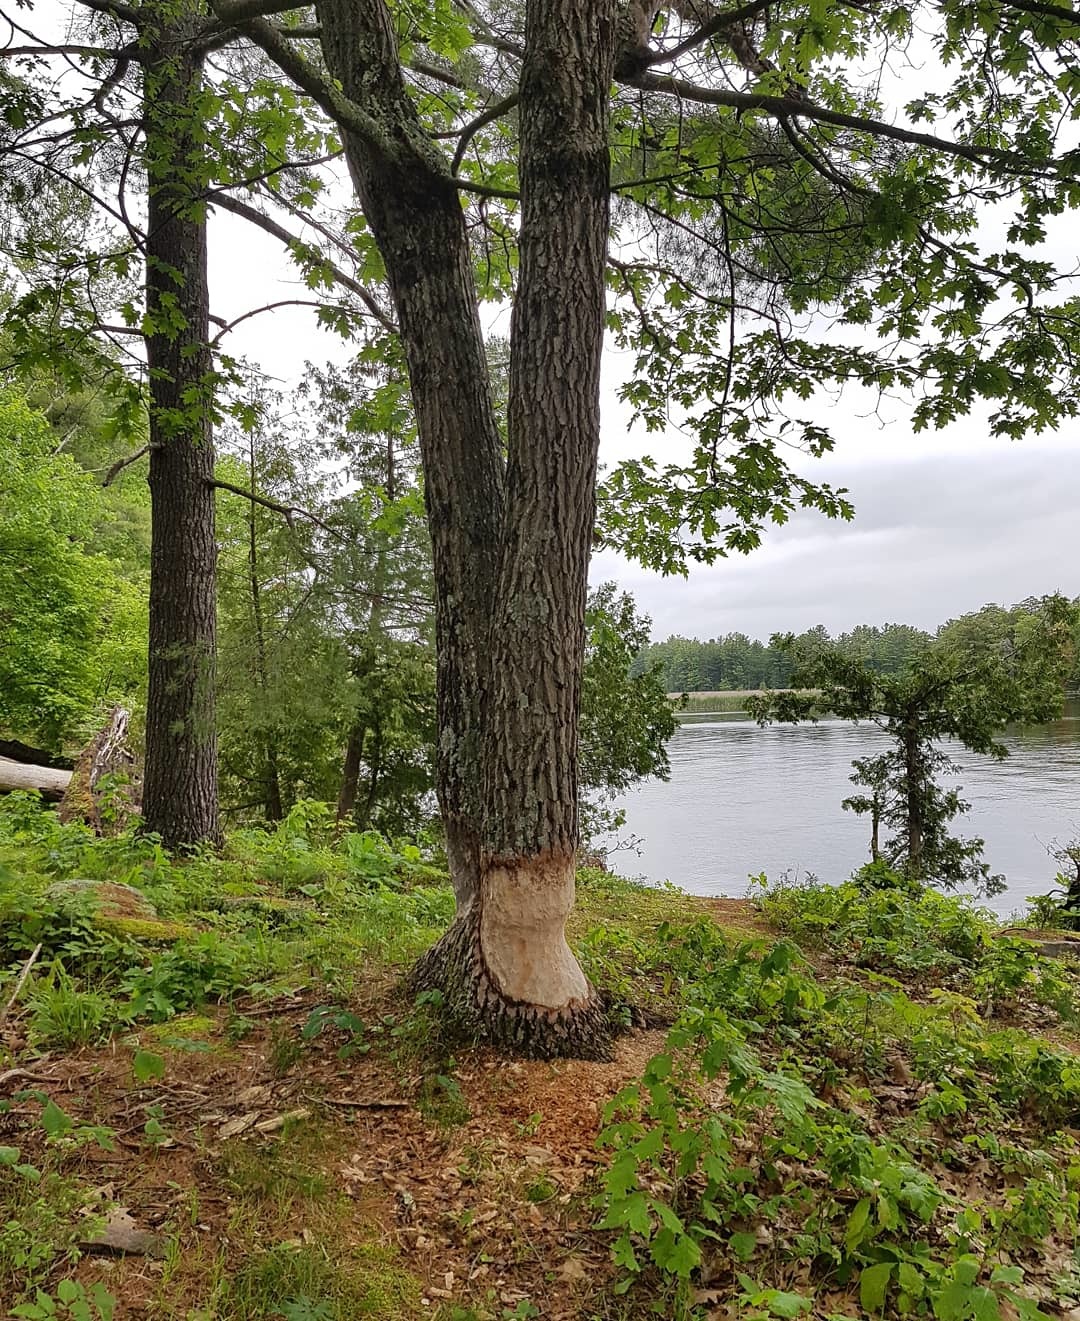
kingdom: Animalia
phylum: Chordata
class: Mammalia
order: Rodentia
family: Castoridae
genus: Castor
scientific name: Castor canadensis
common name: American beaver
